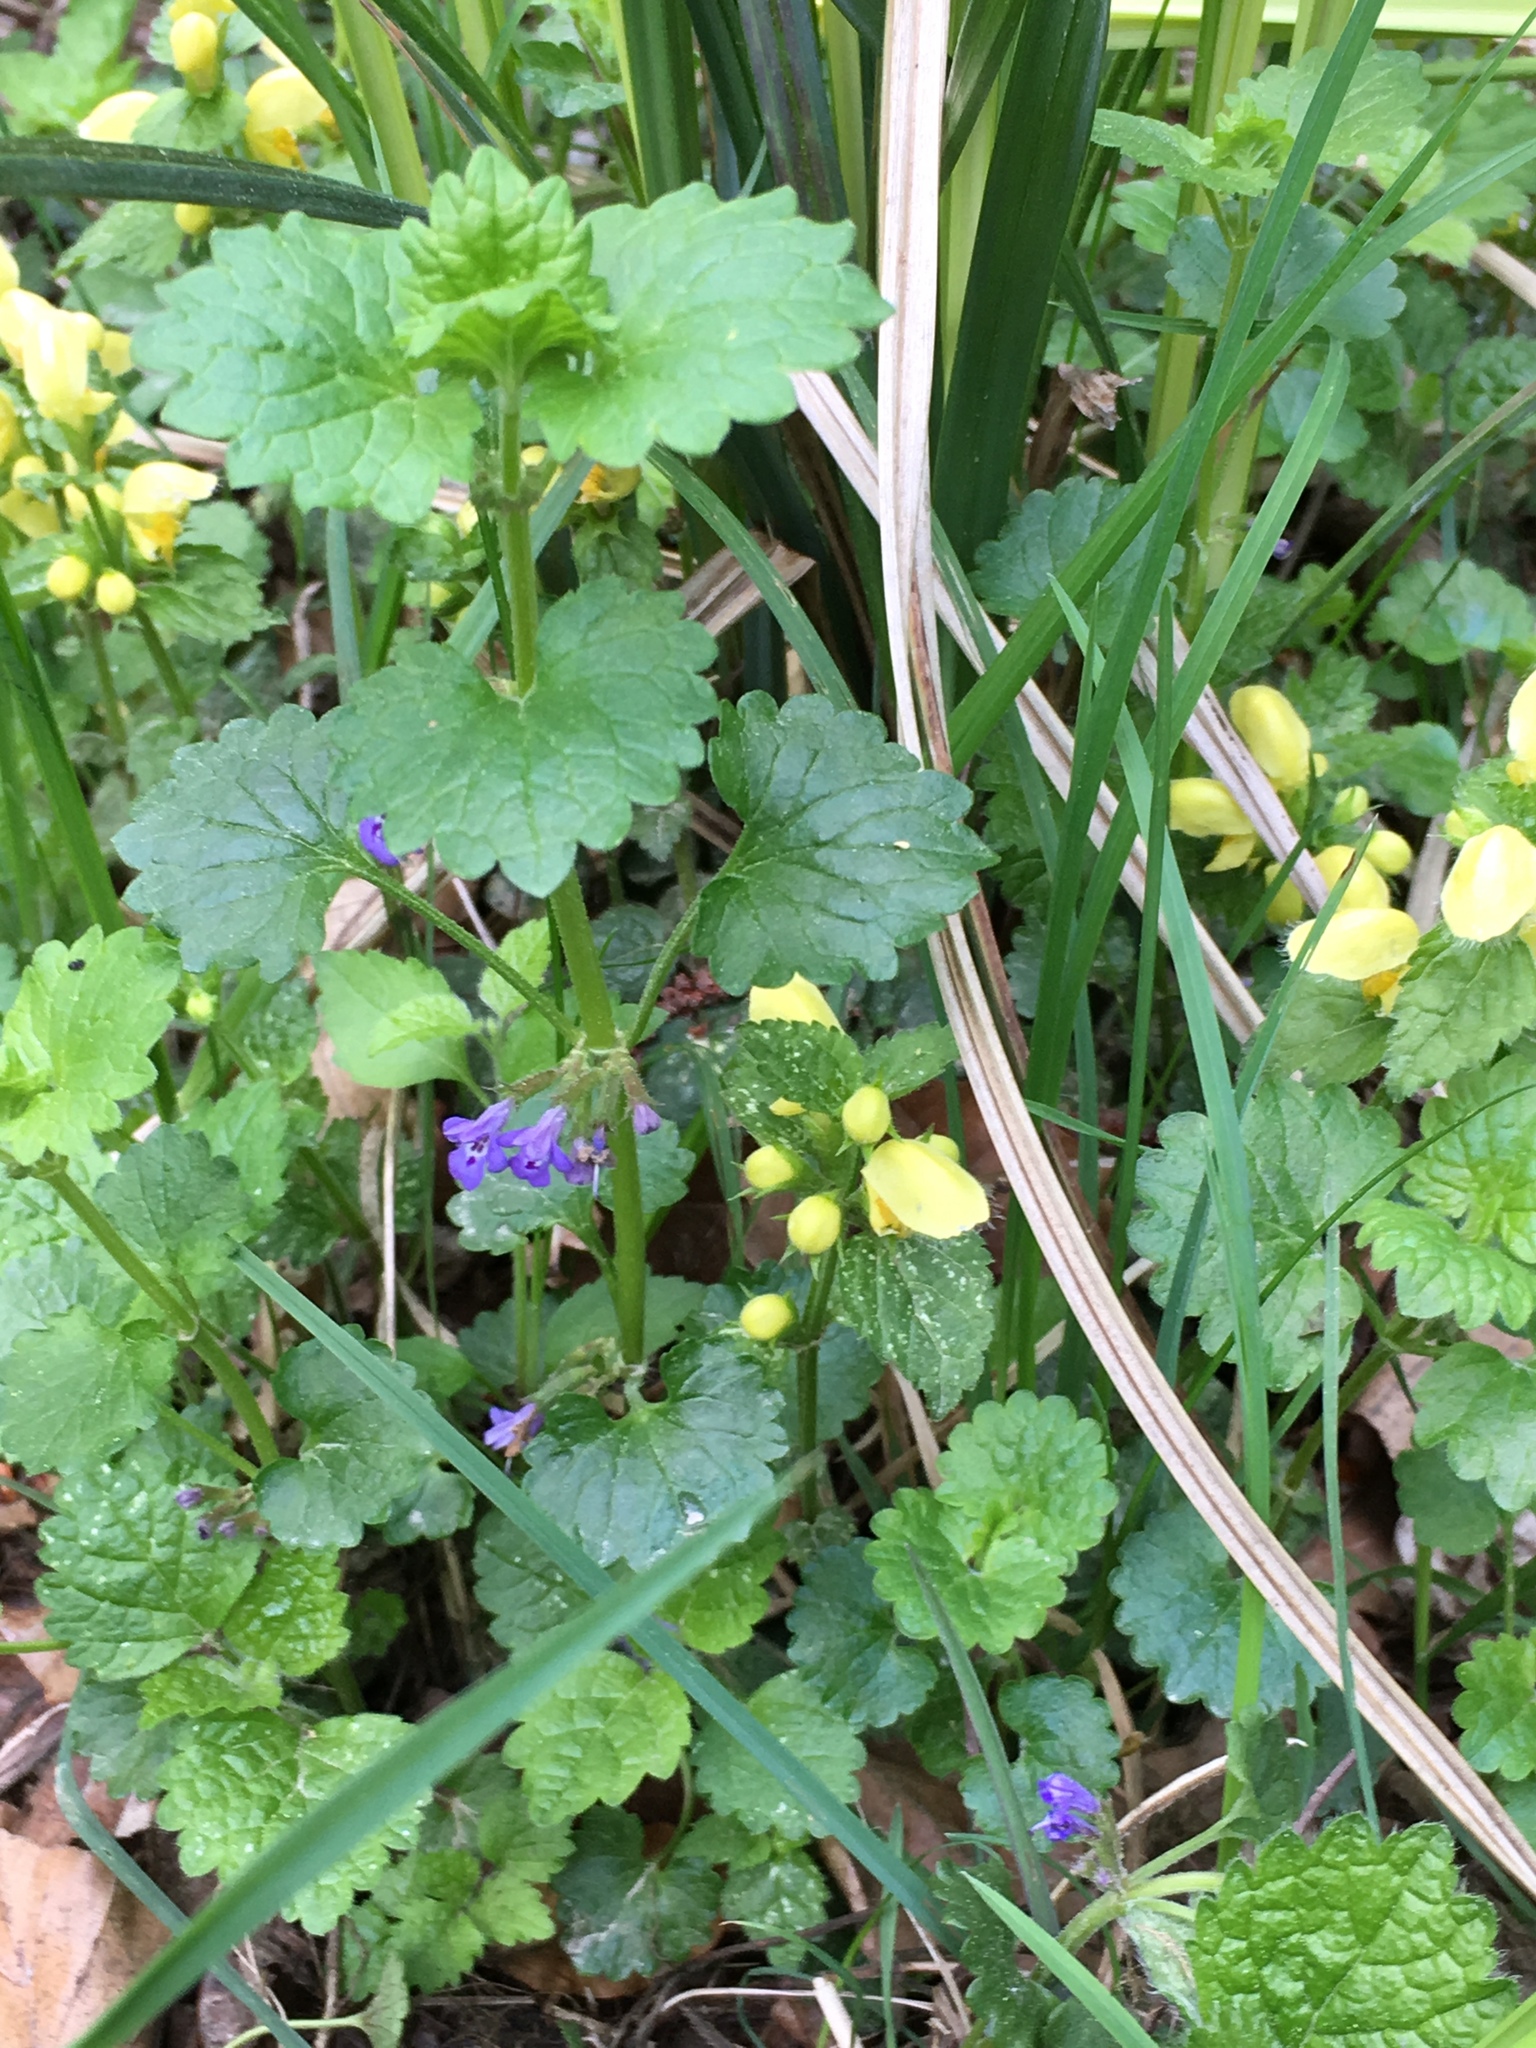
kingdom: Plantae
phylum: Tracheophyta
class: Magnoliopsida
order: Lamiales
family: Lamiaceae
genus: Glechoma
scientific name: Glechoma hederacea
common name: Ground ivy
